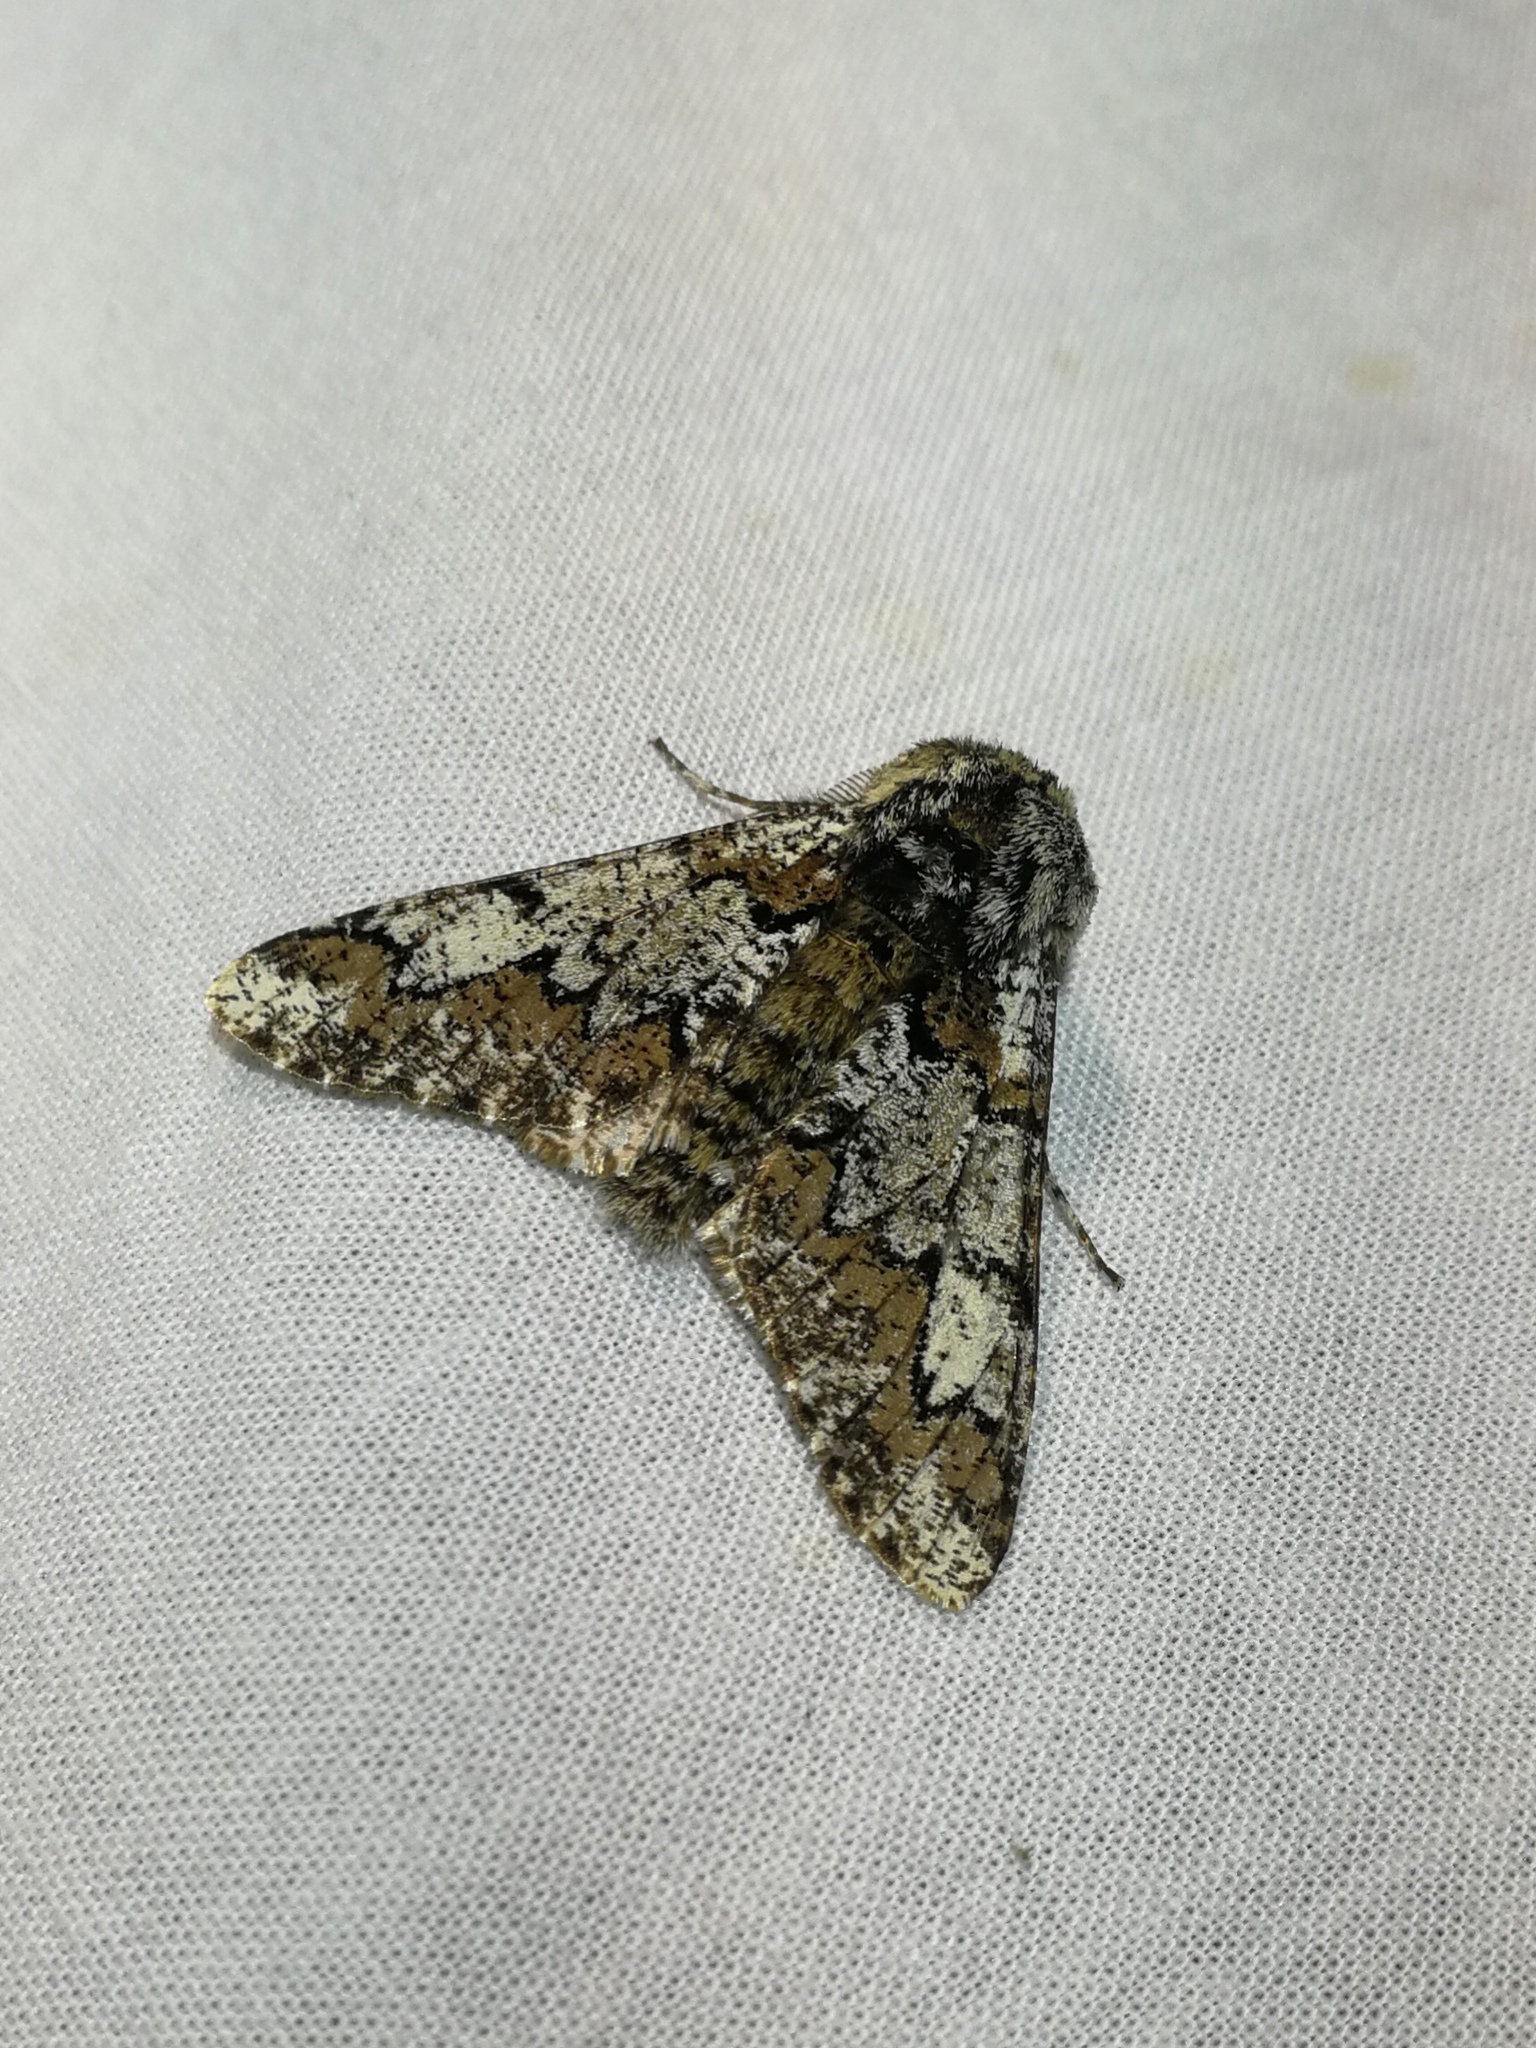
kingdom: Animalia
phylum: Arthropoda
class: Insecta
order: Lepidoptera
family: Geometridae
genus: Biston
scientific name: Biston strataria
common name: Oak beauty
